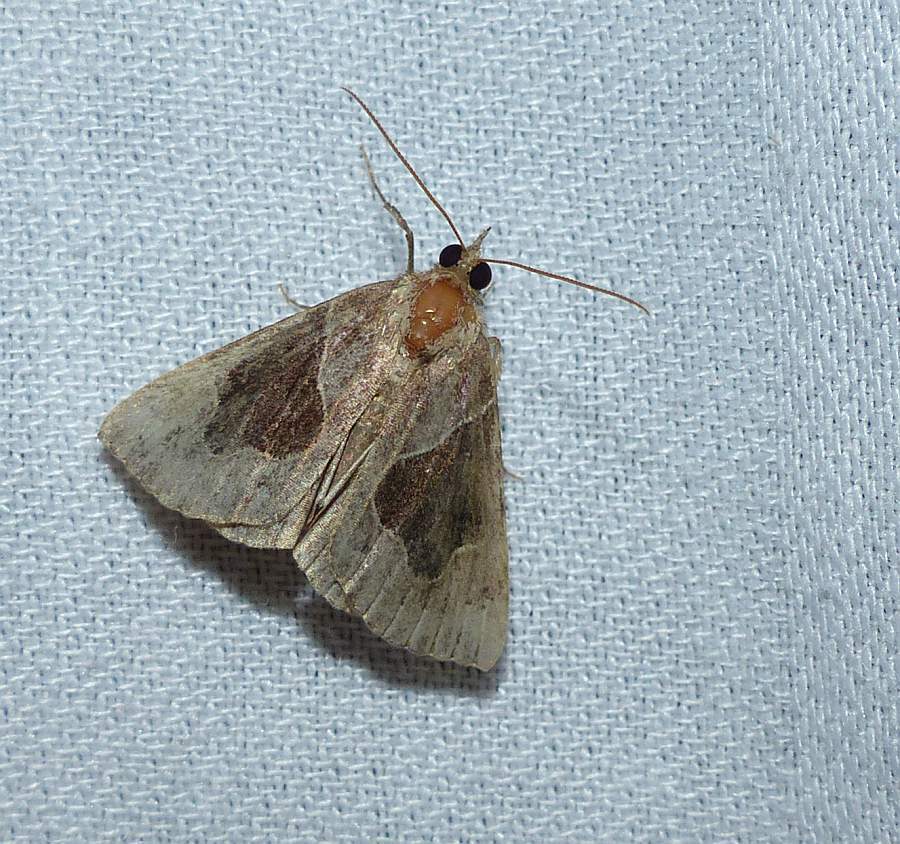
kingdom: Animalia
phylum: Arthropoda
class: Insecta
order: Lepidoptera
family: Erebidae
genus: Hypena
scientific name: Hypena manalis
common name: Flowing-line bomolocha moth
